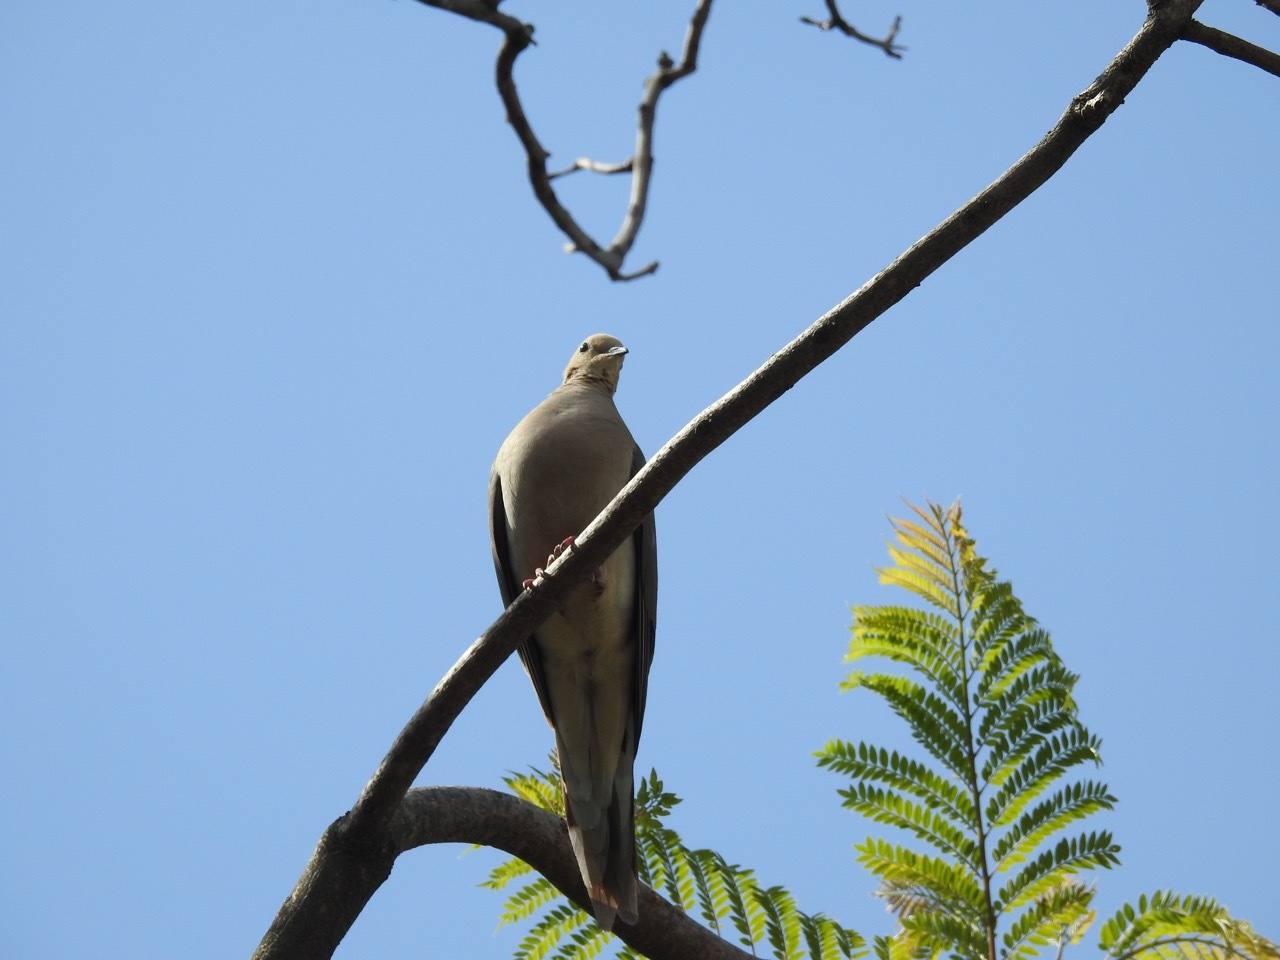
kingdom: Animalia
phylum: Chordata
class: Aves
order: Columbiformes
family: Columbidae
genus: Zenaida
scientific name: Zenaida macroura
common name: Mourning dove
